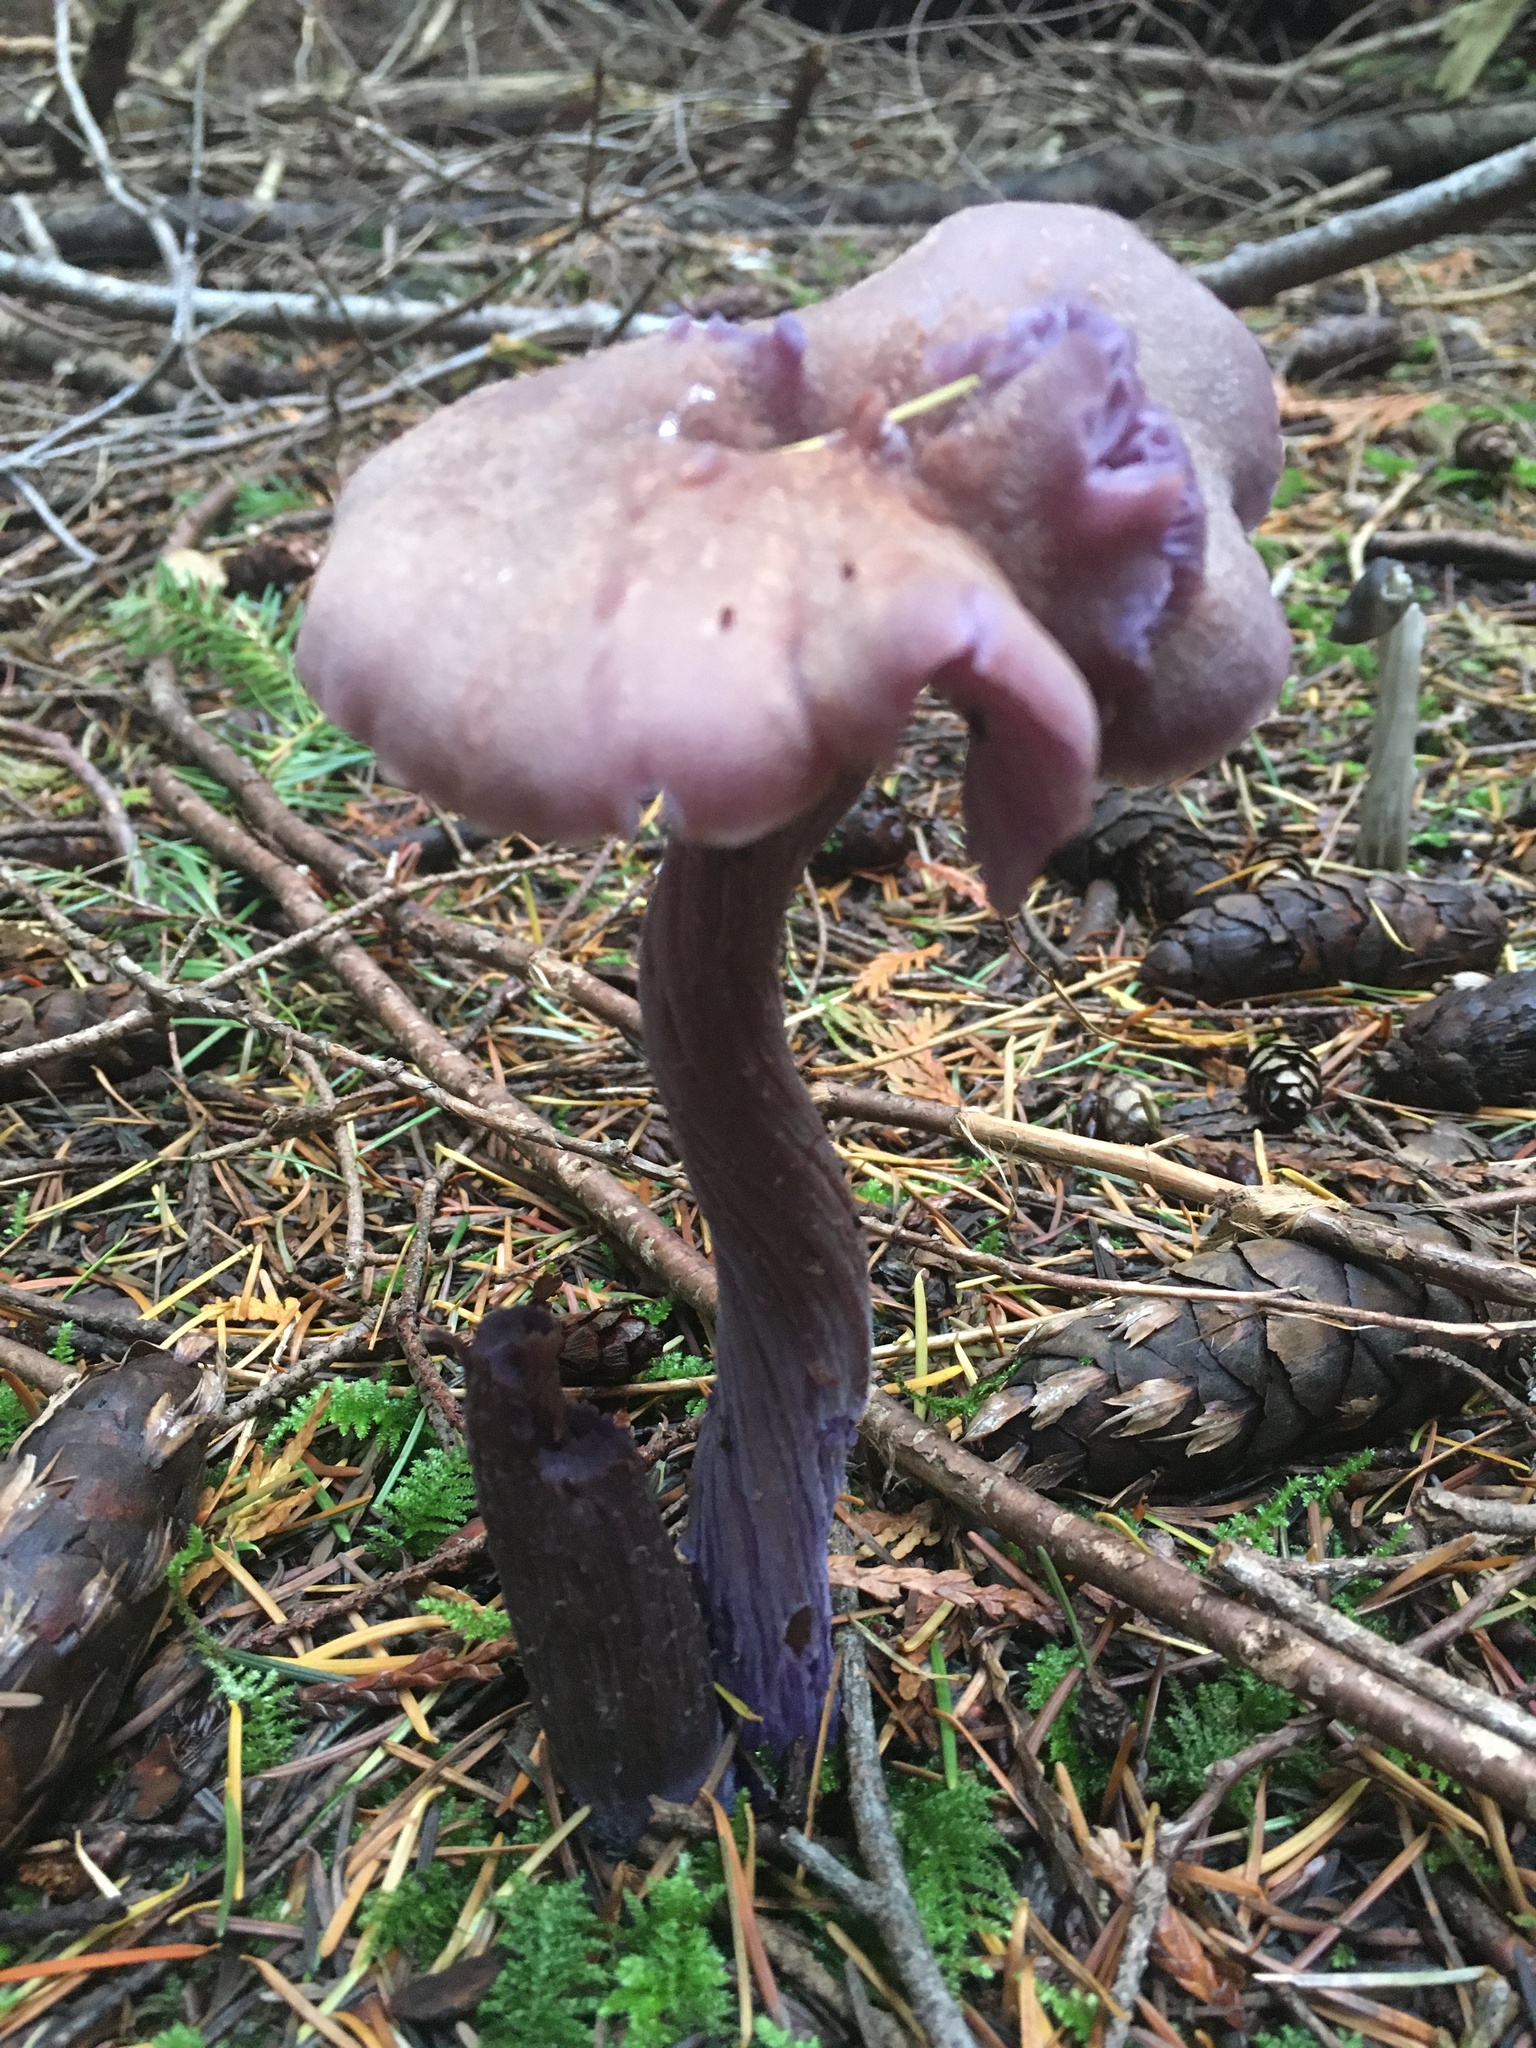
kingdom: Fungi
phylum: Basidiomycota
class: Agaricomycetes
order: Agaricales
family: Hydnangiaceae
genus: Laccaria
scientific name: Laccaria amethysteo-occidentalis
